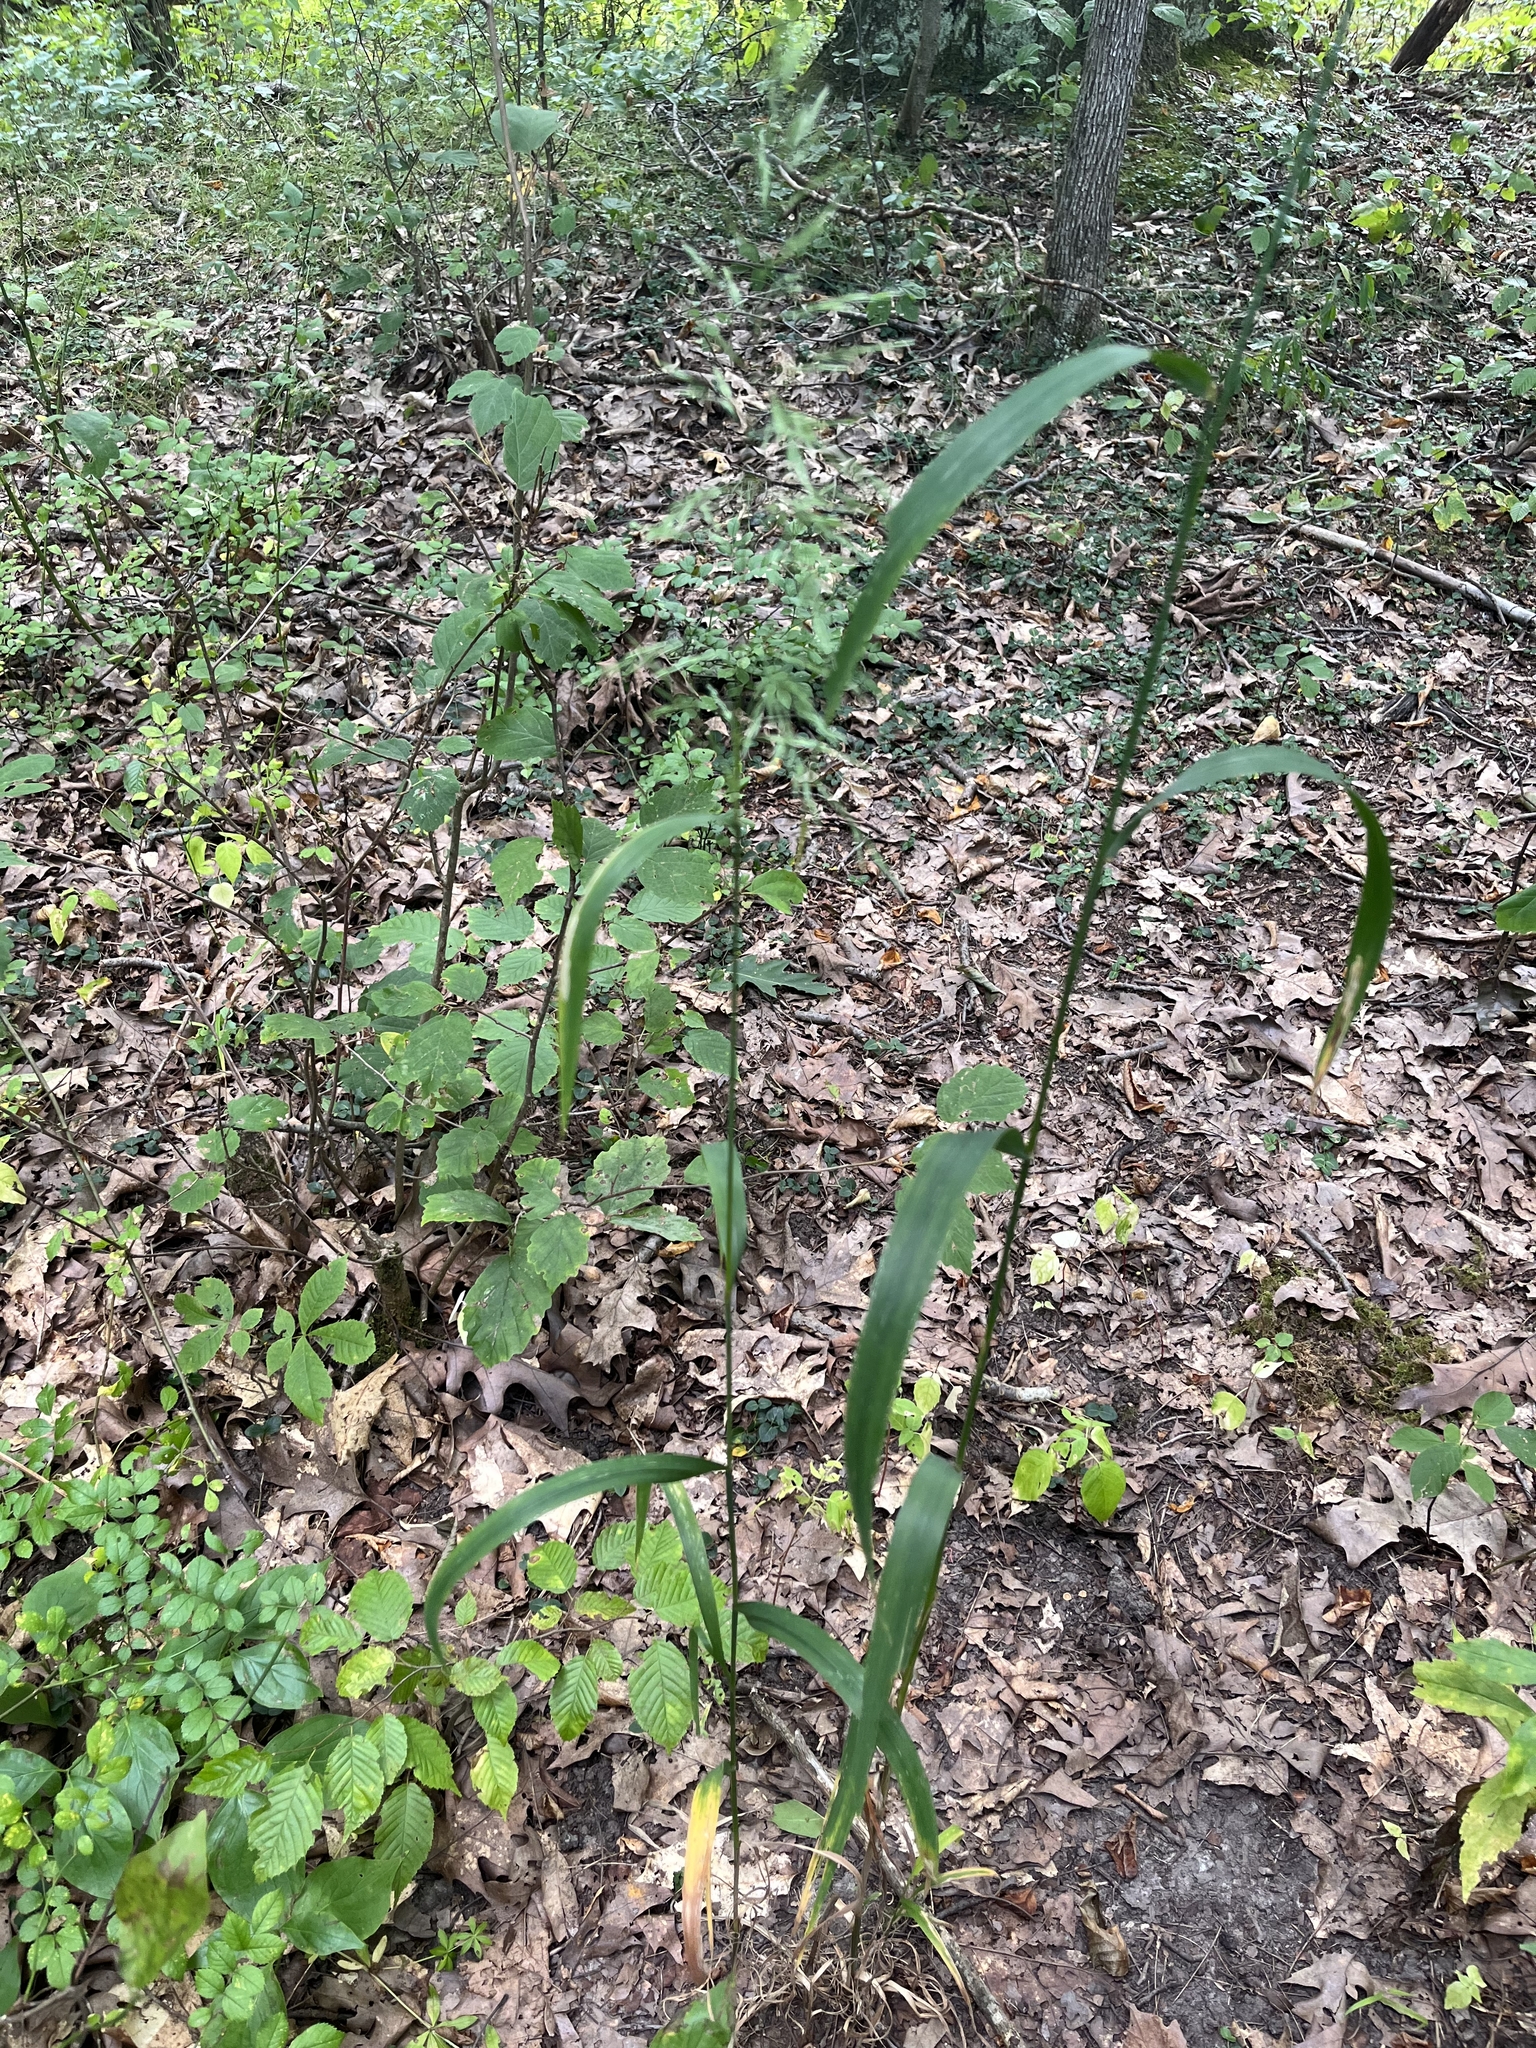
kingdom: Plantae
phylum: Tracheophyta
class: Liliopsida
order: Poales
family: Poaceae
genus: Cinna
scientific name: Cinna arundinacea
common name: Stout woodreed
